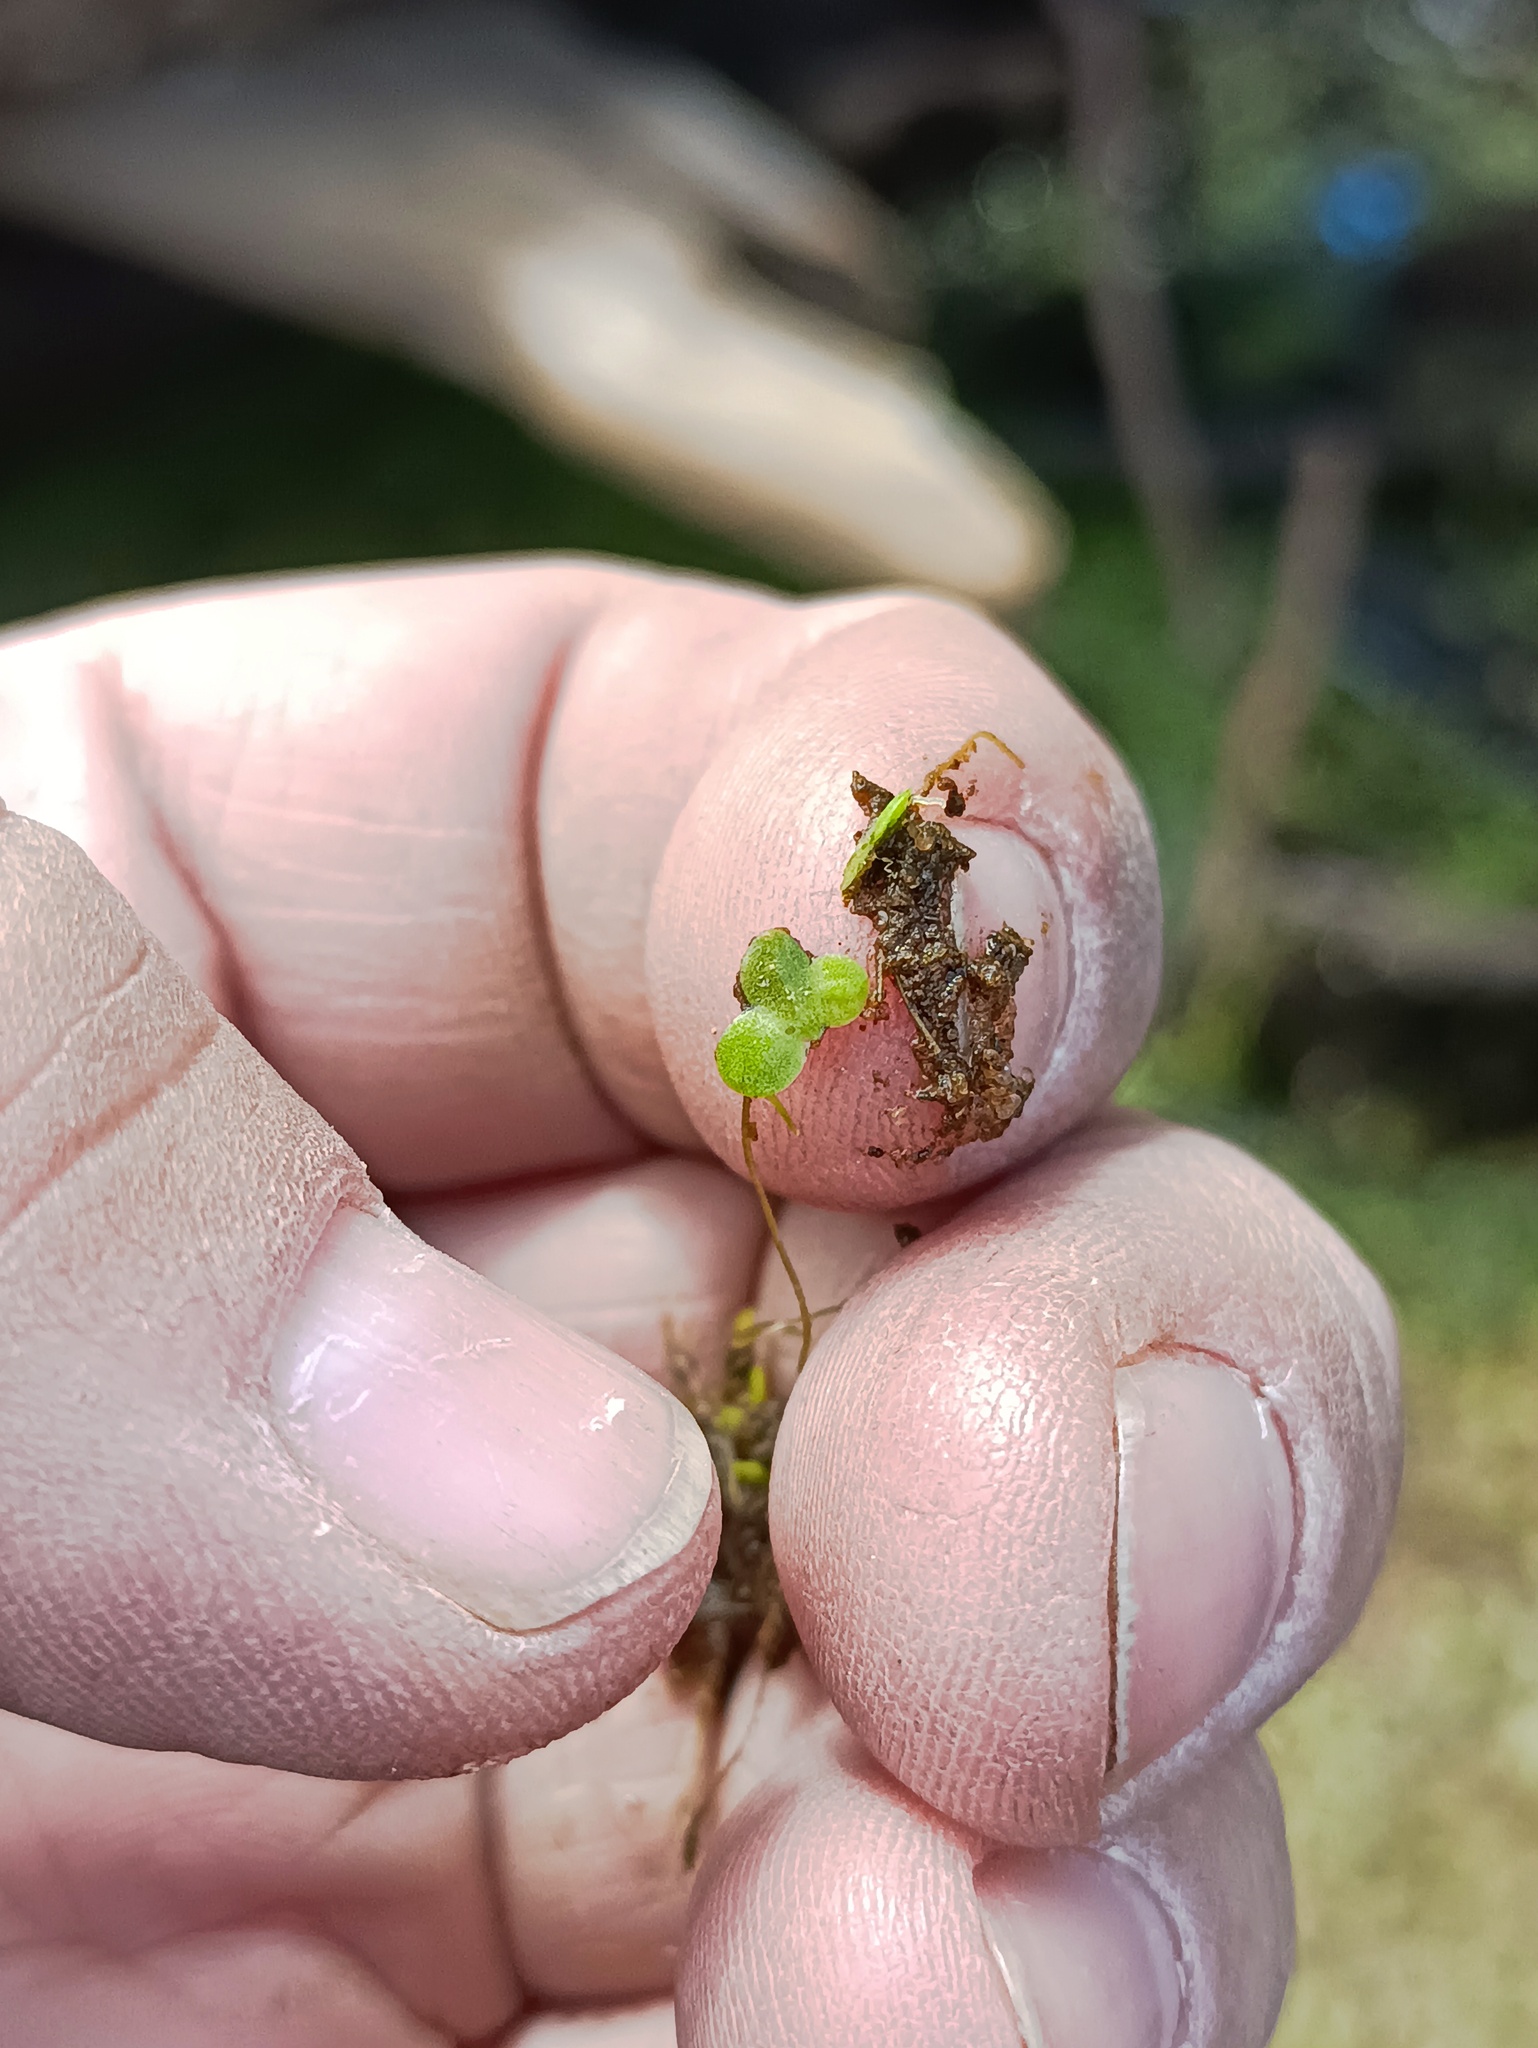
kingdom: Plantae
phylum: Tracheophyta
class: Liliopsida
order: Alismatales
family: Araceae
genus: Lemna
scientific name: Lemna minor
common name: Common duckweed
